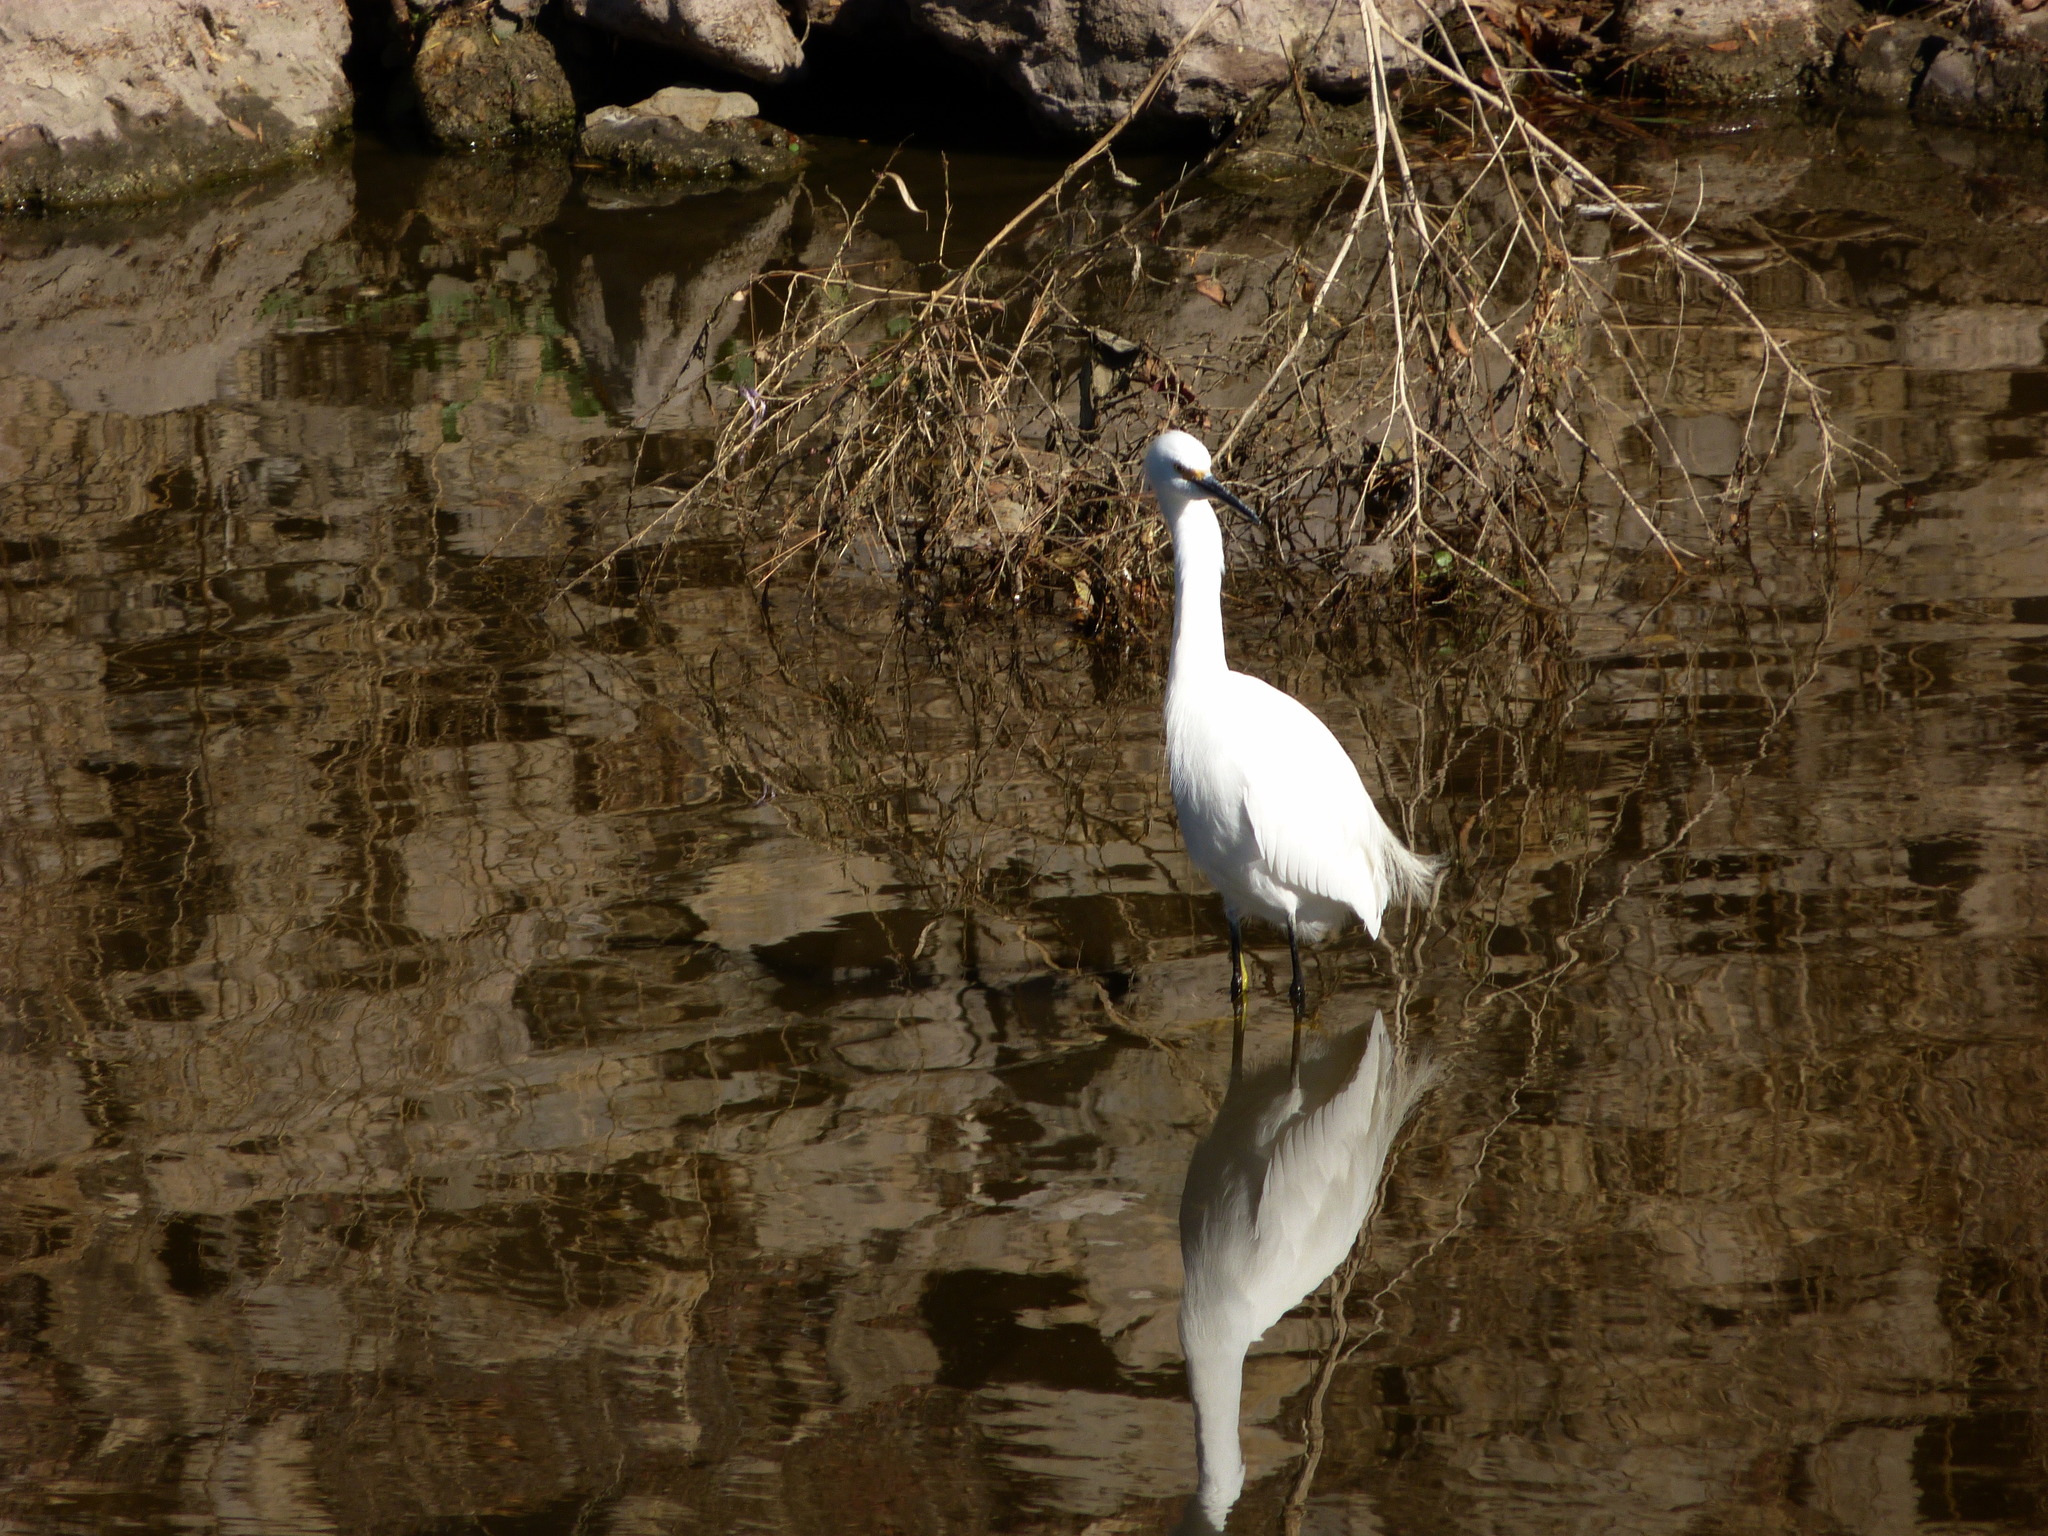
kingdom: Animalia
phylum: Chordata
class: Aves
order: Pelecaniformes
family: Ardeidae
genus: Egretta
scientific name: Egretta thula
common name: Snowy egret
